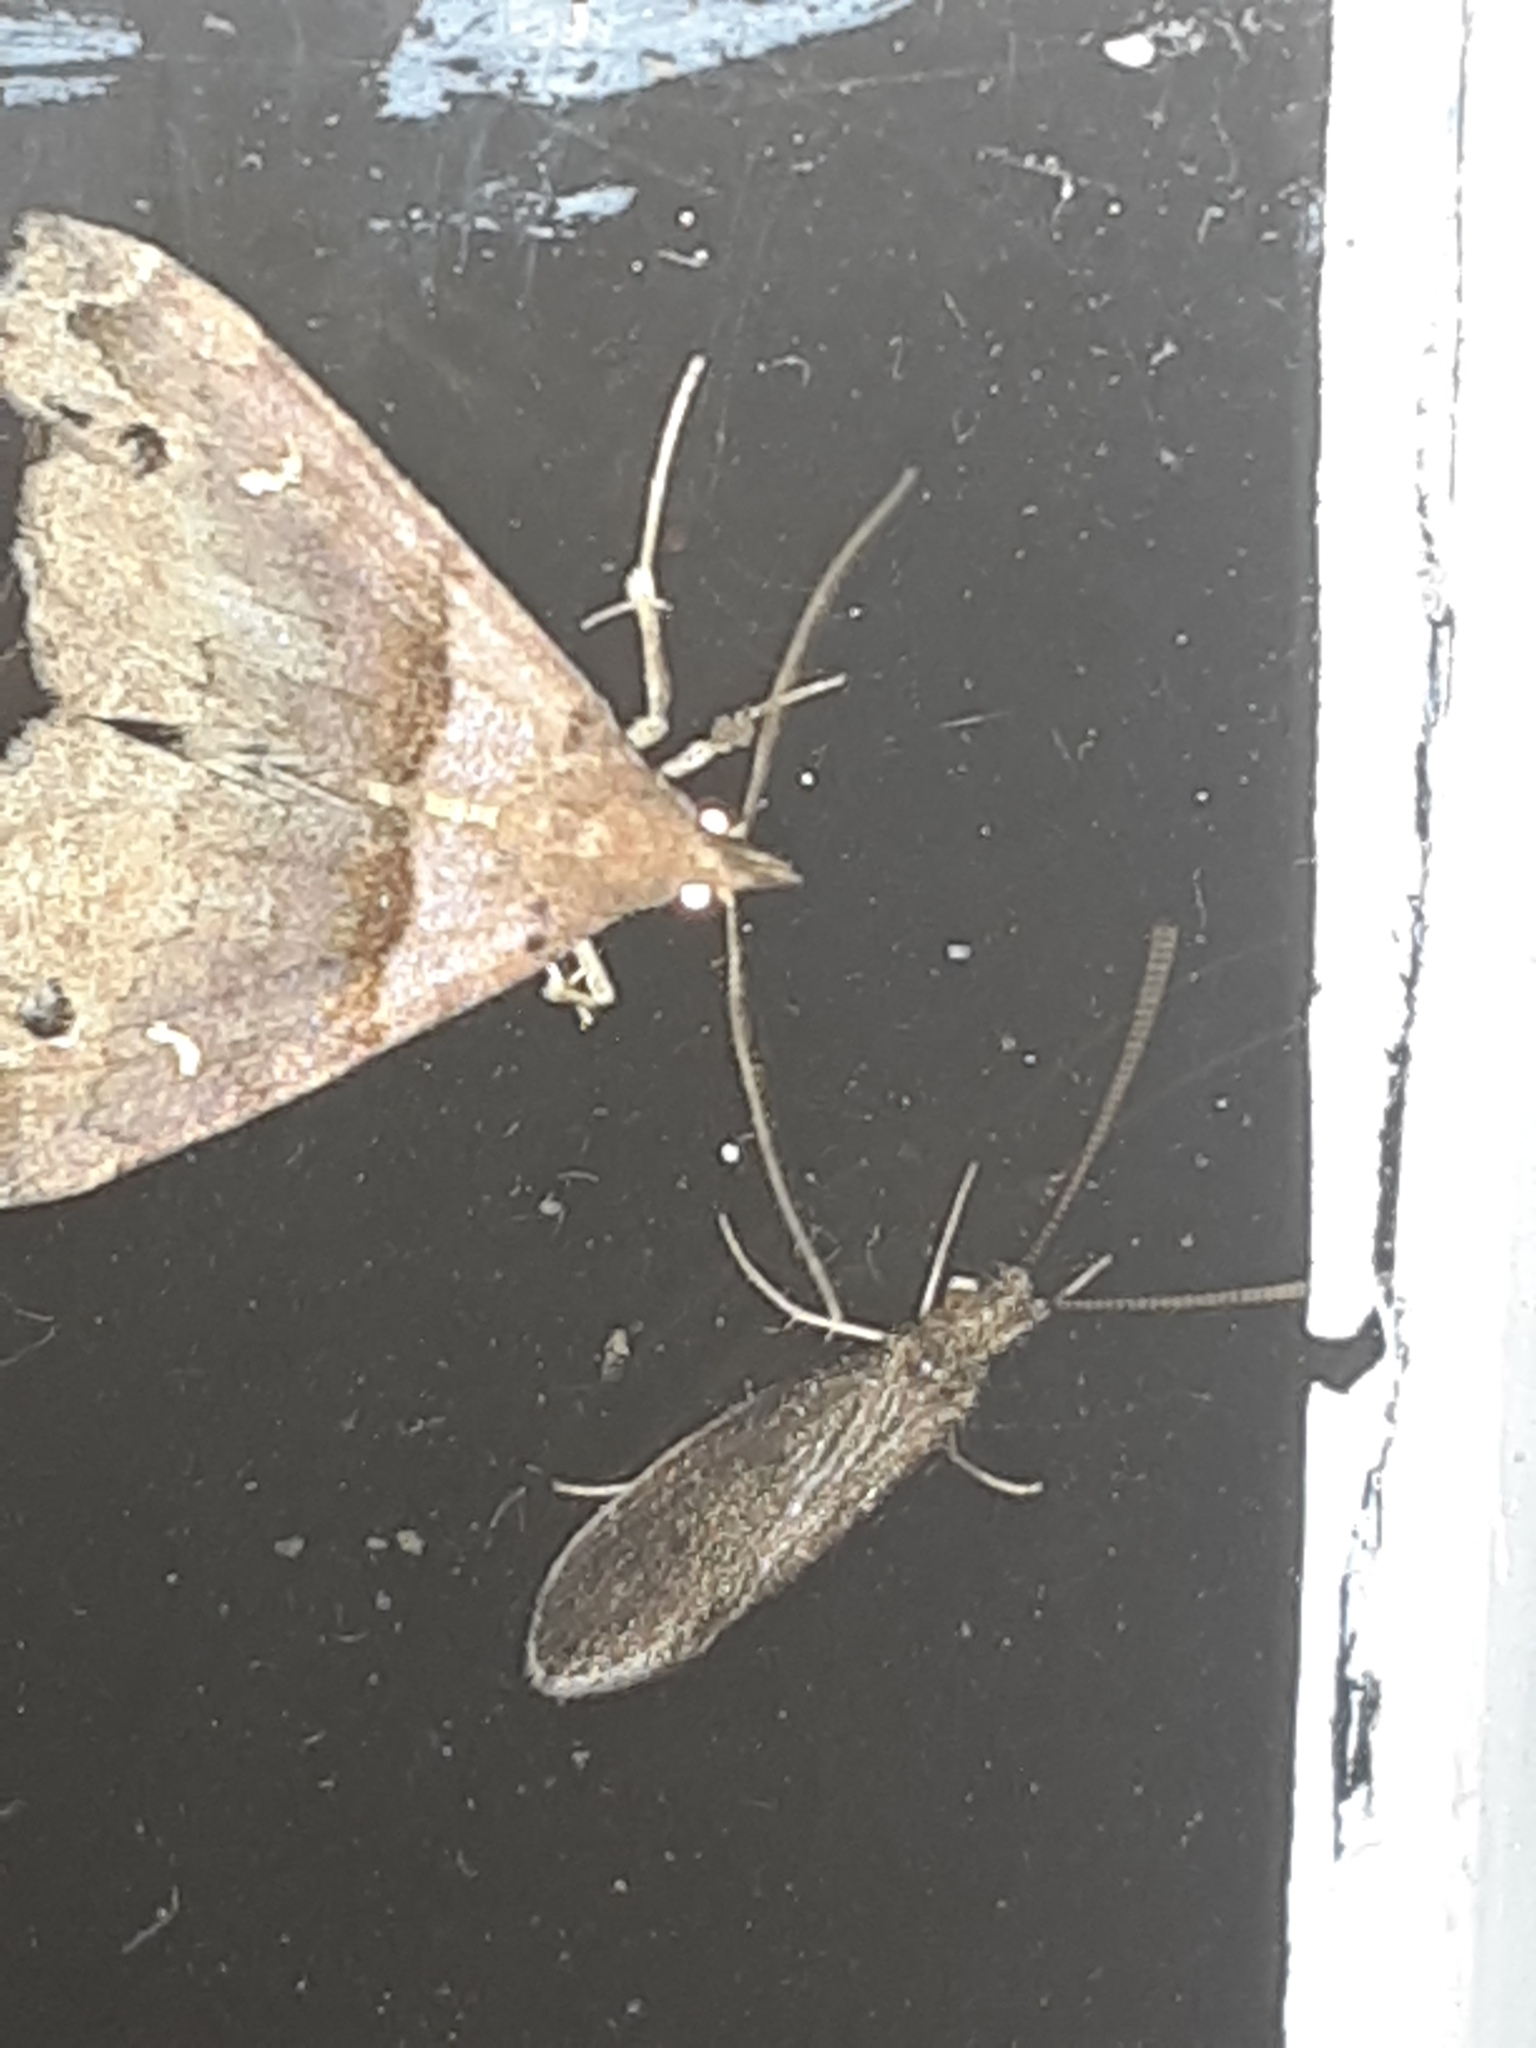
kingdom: Animalia
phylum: Arthropoda
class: Insecta
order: Lepidoptera
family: Erebidae
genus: Lascoria
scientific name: Lascoria ambigualis
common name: Ambiguous moth
